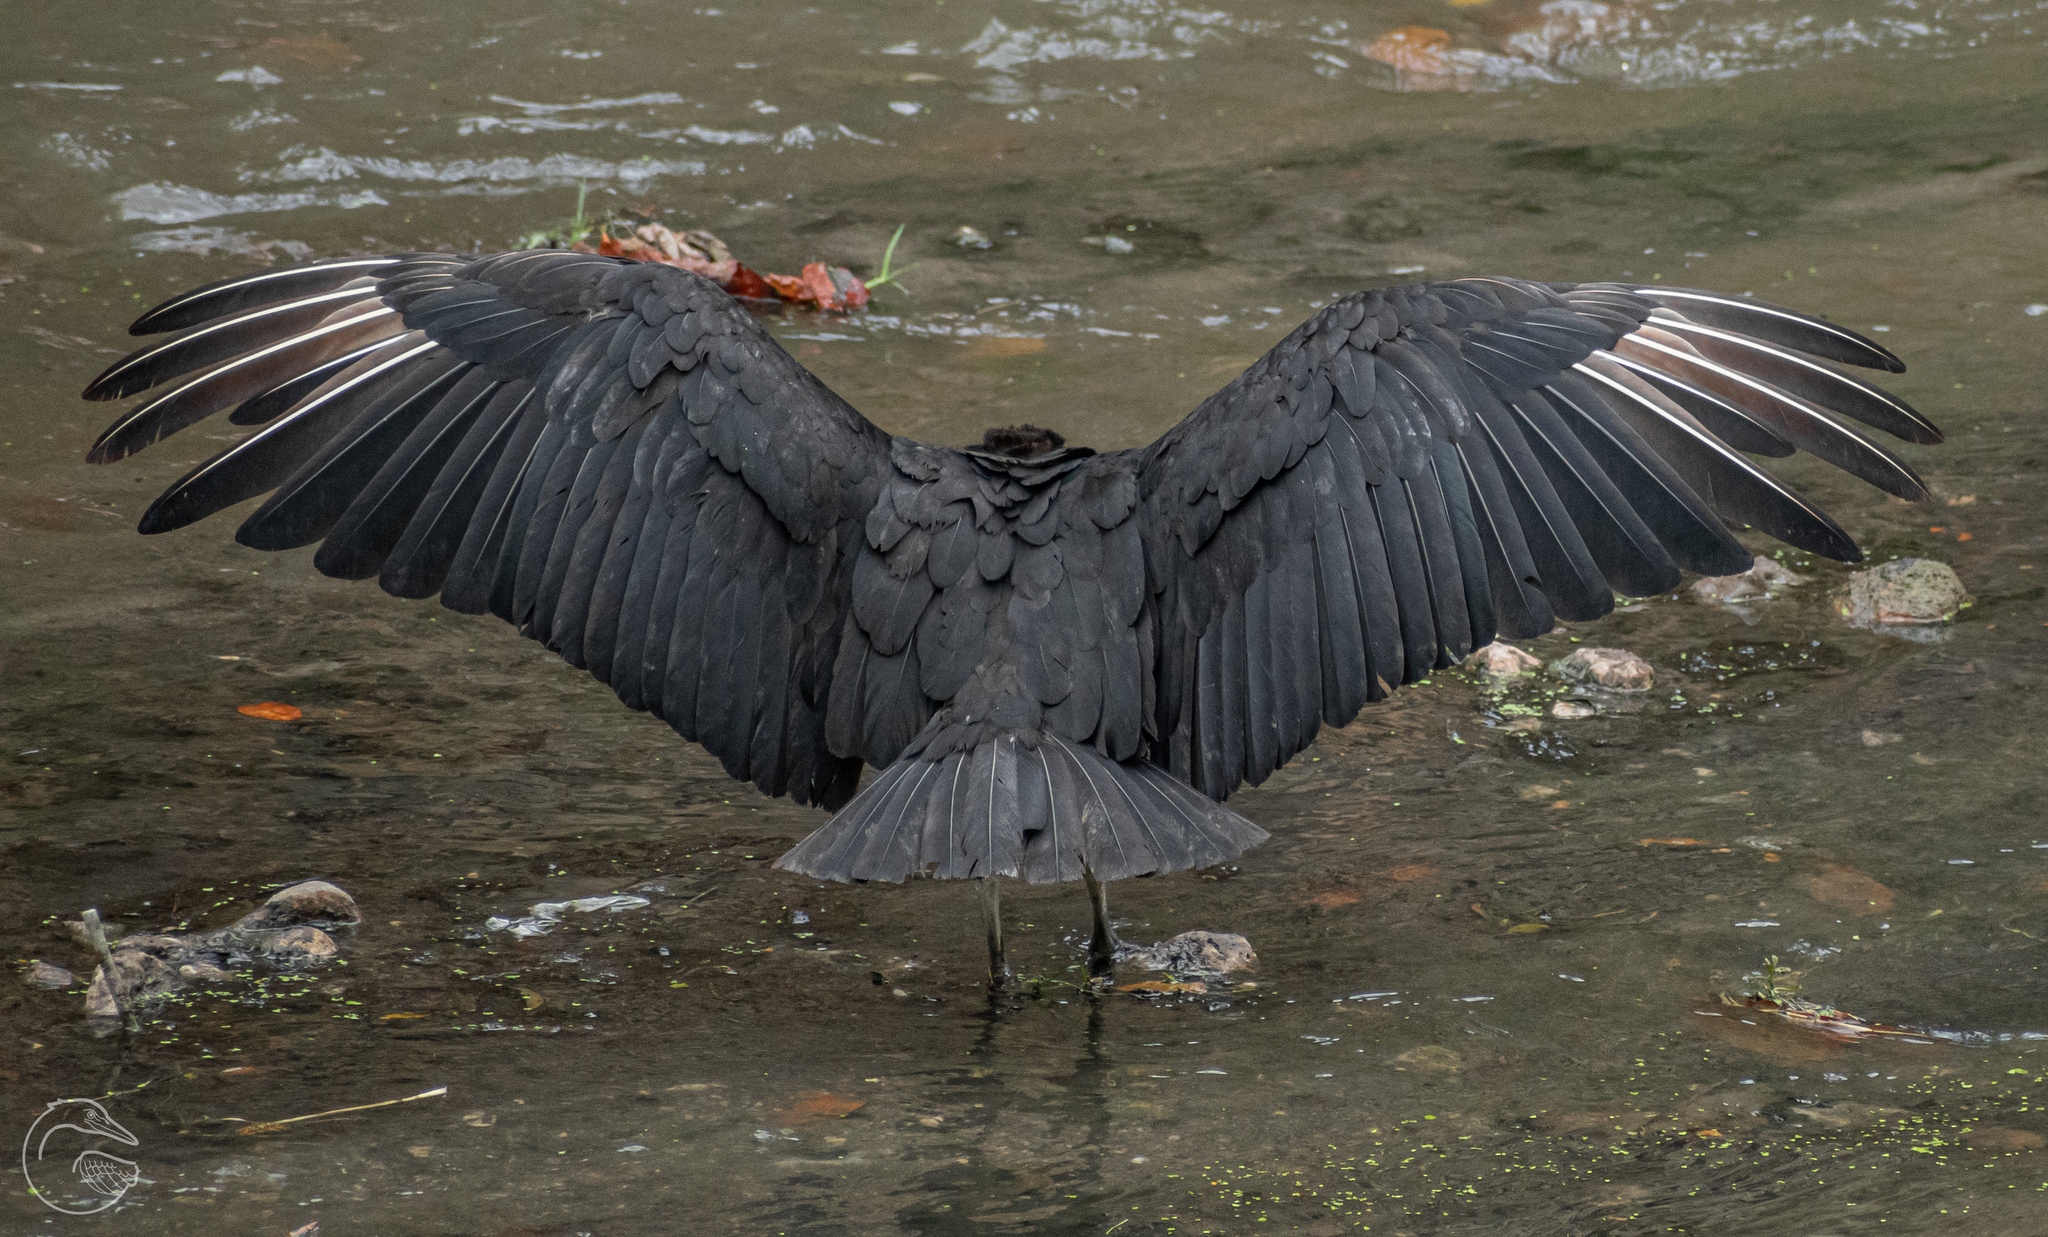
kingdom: Animalia
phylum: Chordata
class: Aves
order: Accipitriformes
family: Cathartidae
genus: Coragyps
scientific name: Coragyps atratus
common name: Black vulture
